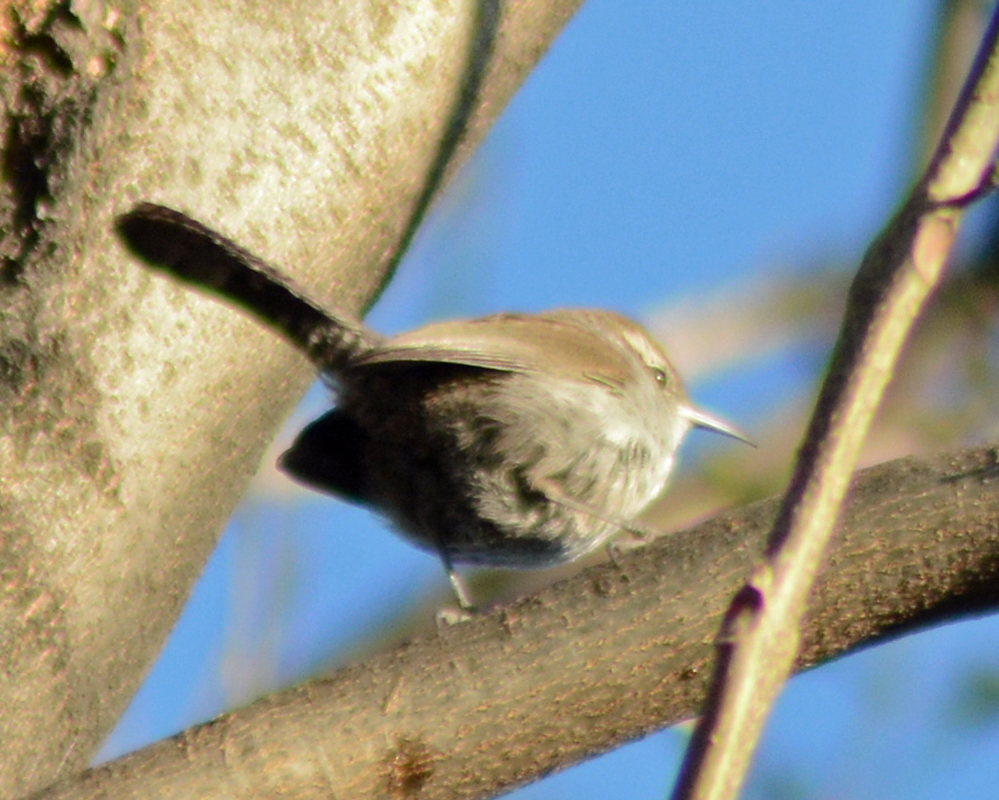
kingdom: Animalia
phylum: Chordata
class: Aves
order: Passeriformes
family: Troglodytidae
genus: Thryomanes
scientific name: Thryomanes bewickii
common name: Bewick's wren
